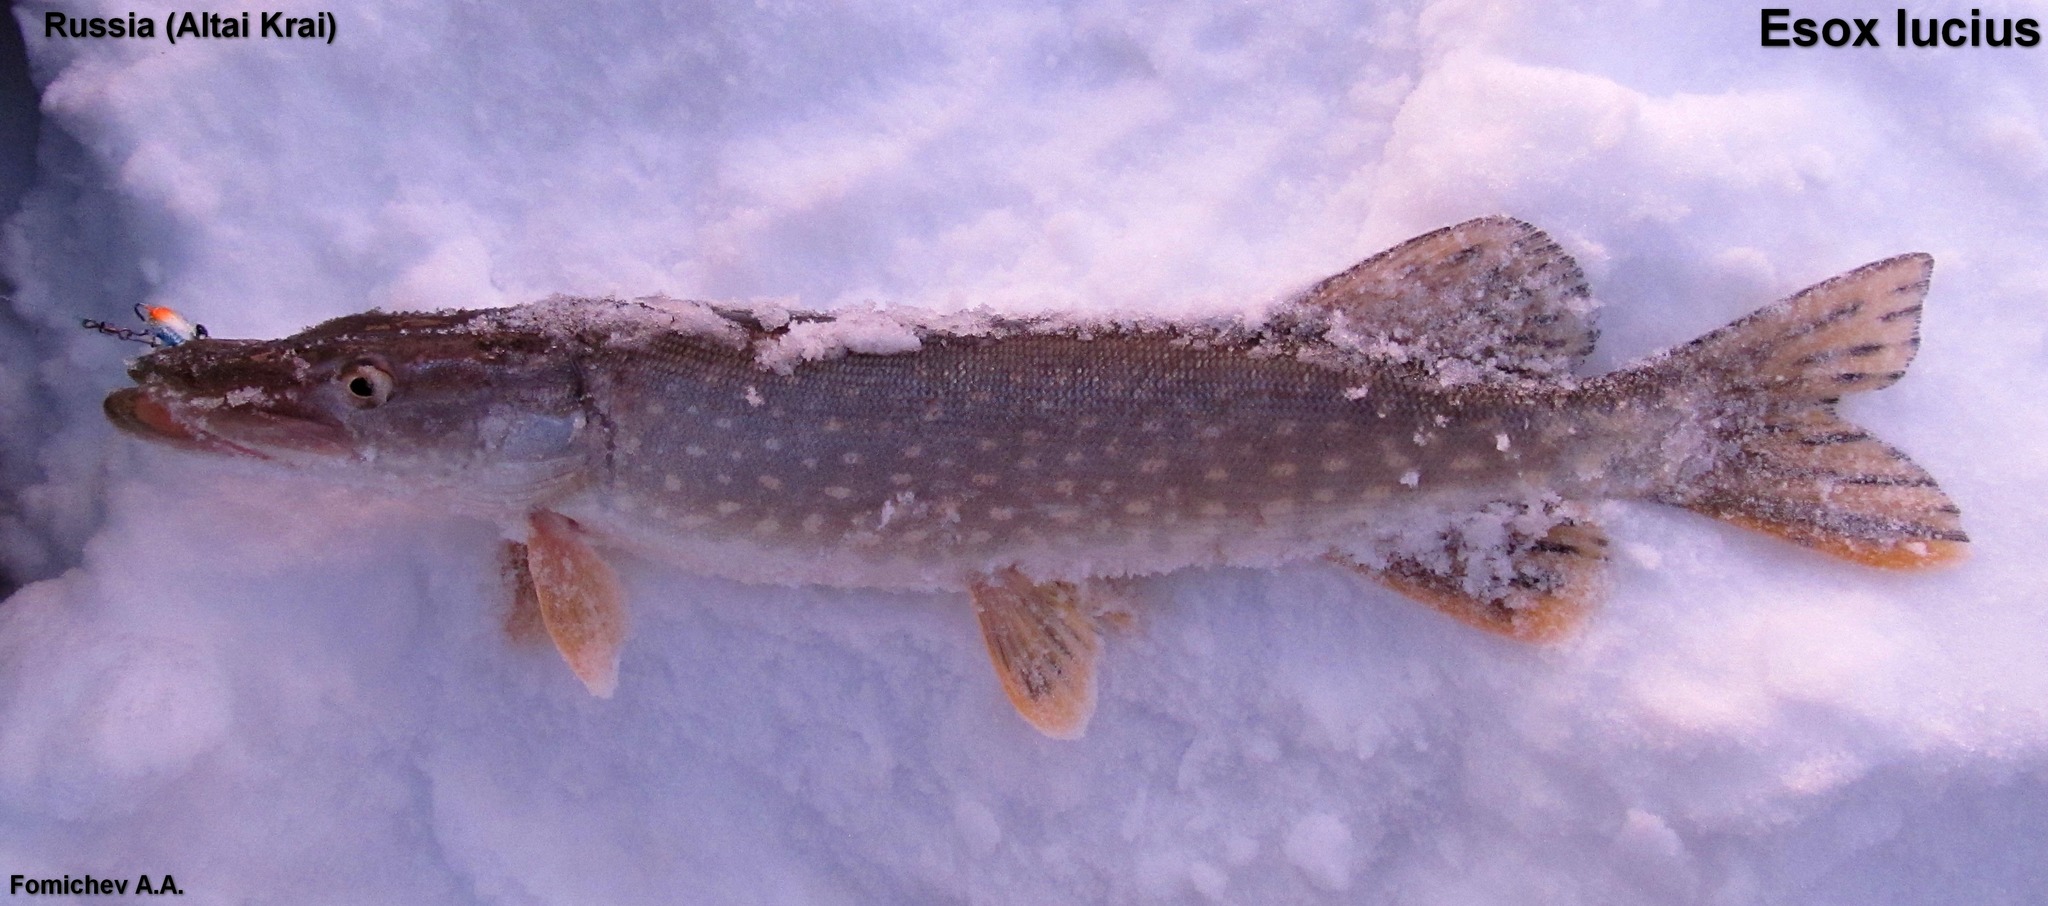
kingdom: Animalia
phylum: Chordata
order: Esociformes
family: Esocidae
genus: Esox
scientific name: Esox lucius
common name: Northern pike
